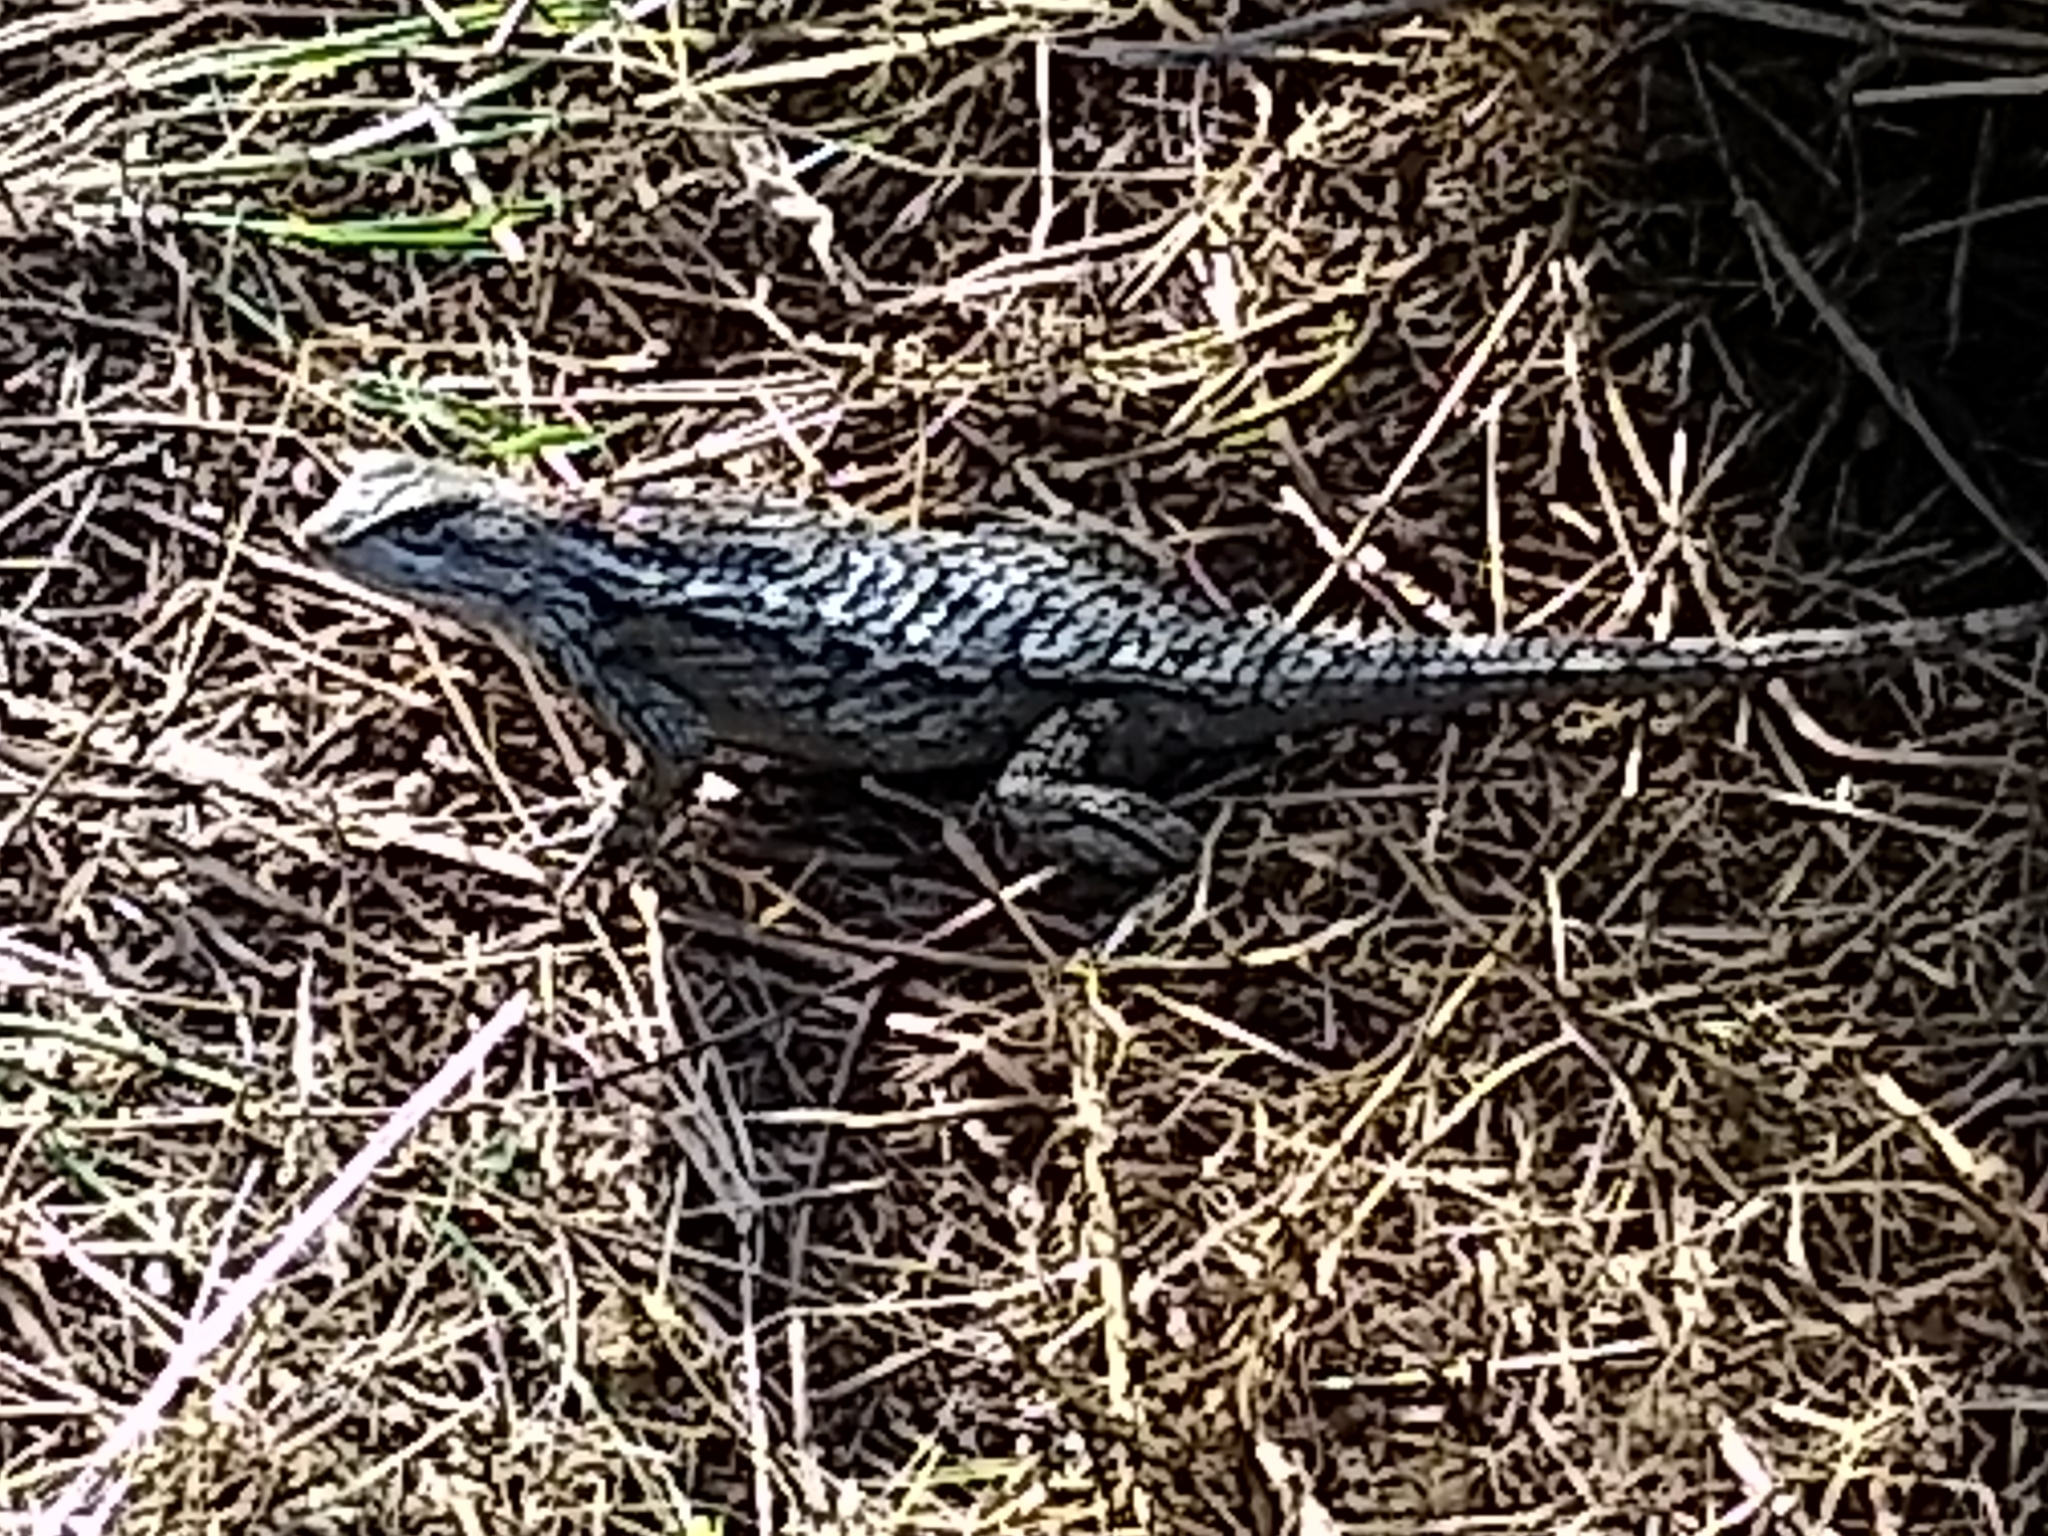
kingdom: Animalia
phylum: Chordata
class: Squamata
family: Phrynosomatidae
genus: Sceloporus
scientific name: Sceloporus olivaceus
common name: Texas spiny lizard
